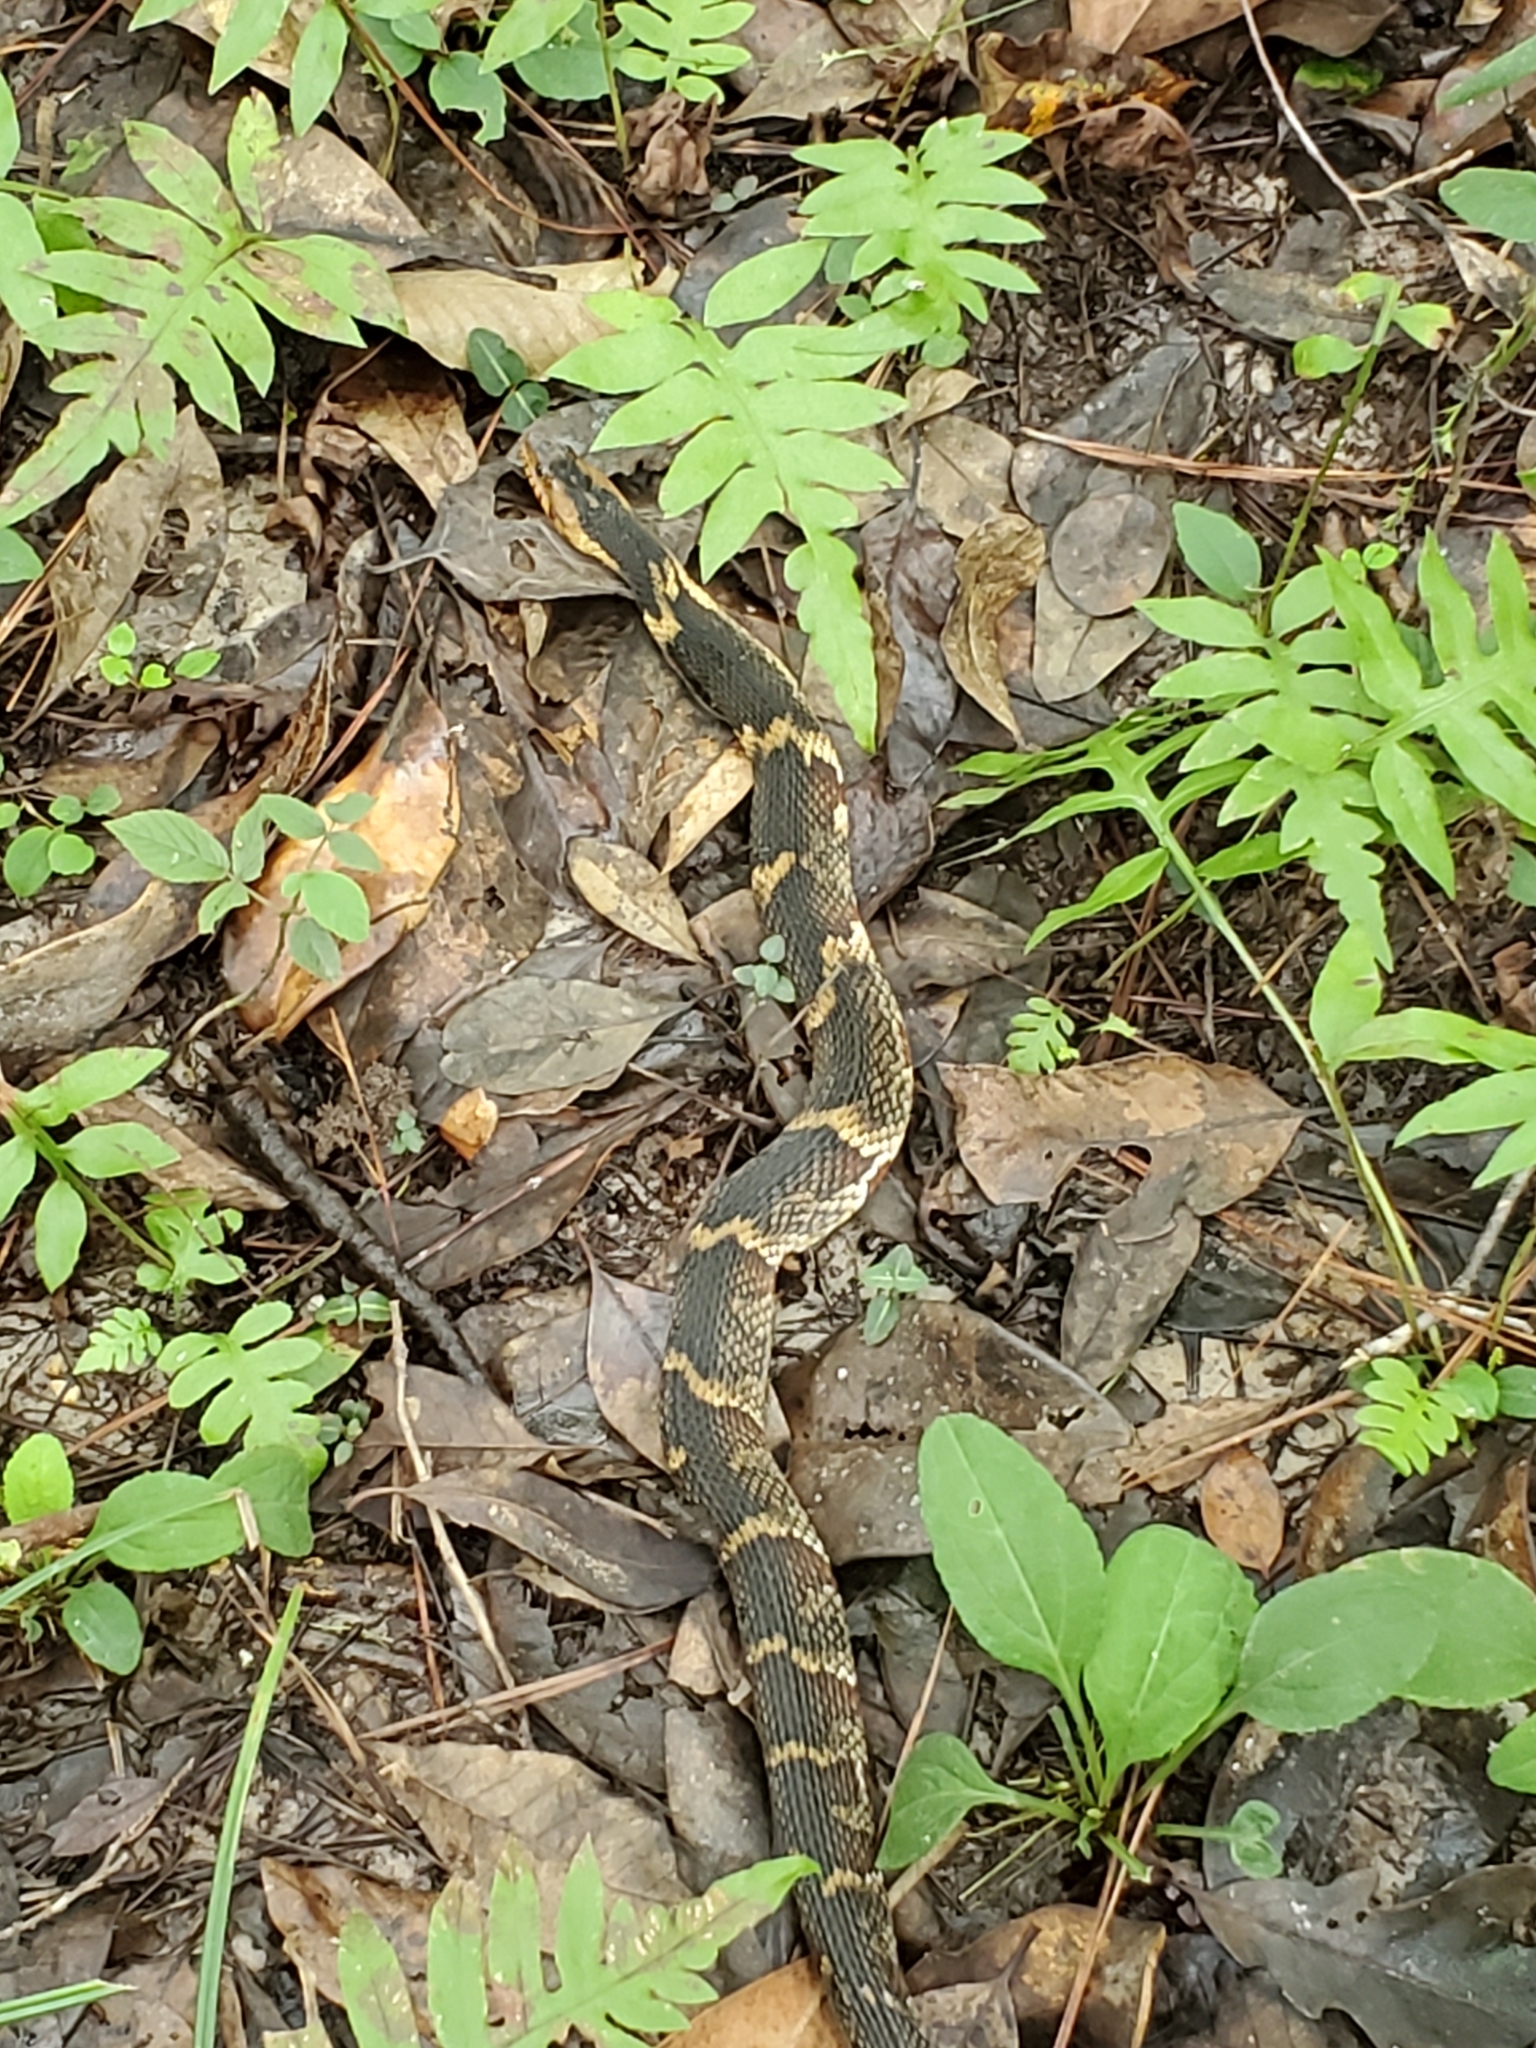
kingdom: Animalia
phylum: Chordata
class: Squamata
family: Colubridae
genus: Nerodia
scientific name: Nerodia fasciata
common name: Southern water snake
